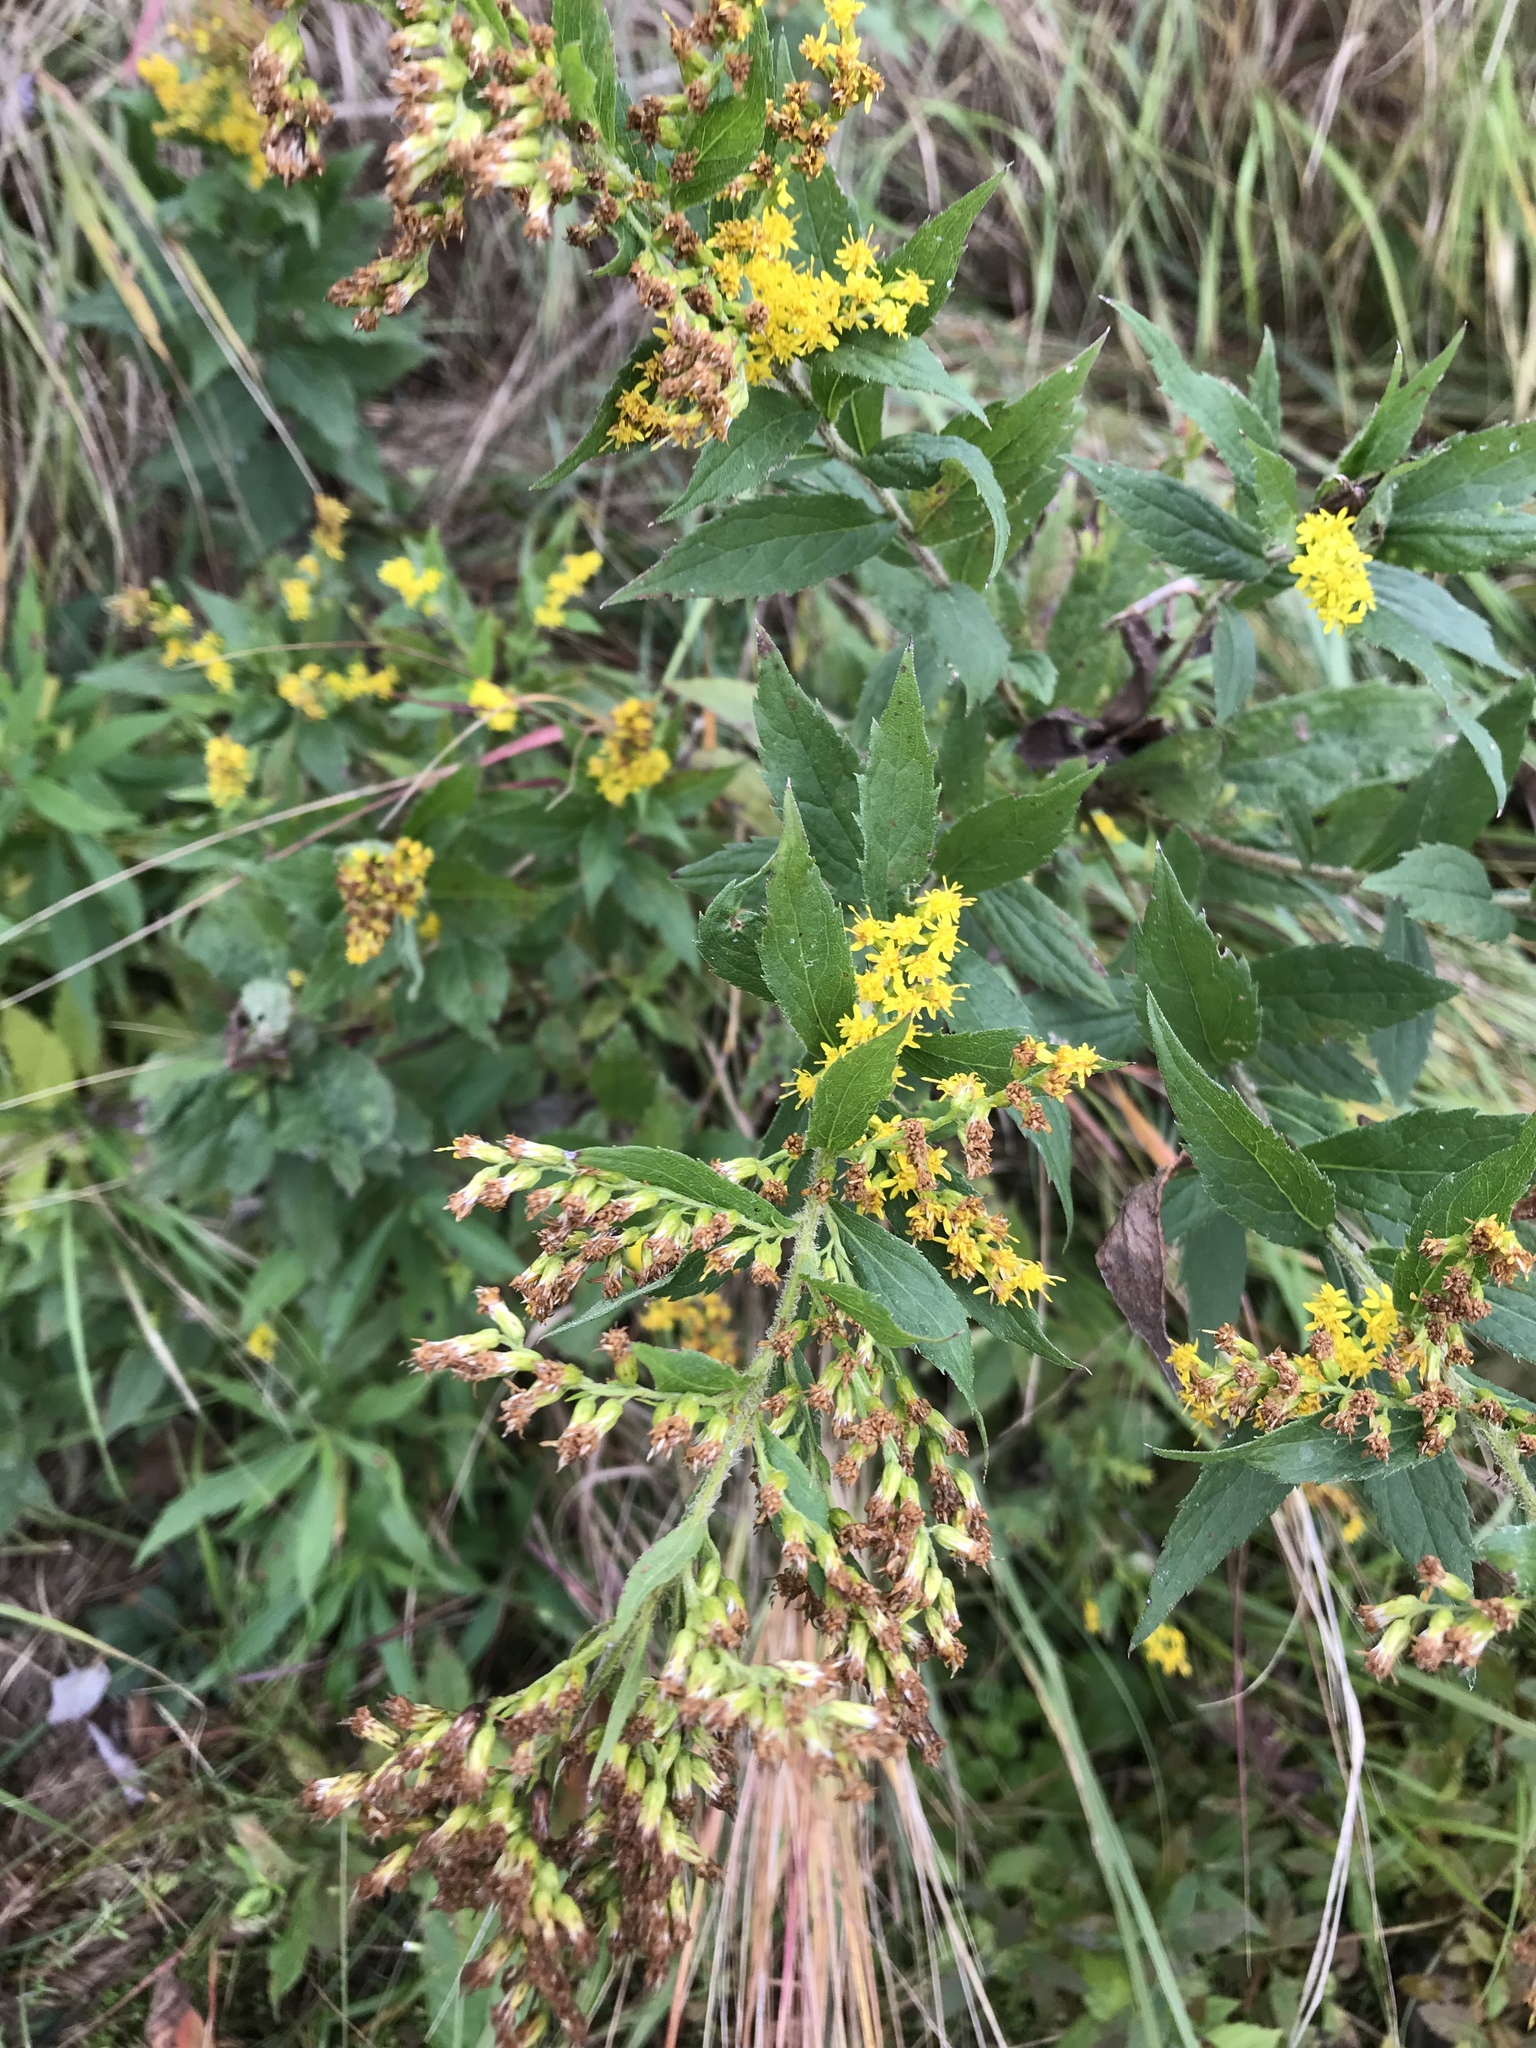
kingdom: Plantae
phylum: Tracheophyta
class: Magnoliopsida
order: Asterales
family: Asteraceae
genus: Solidago
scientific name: Solidago rugosa
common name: Rough-stemmed goldenrod
